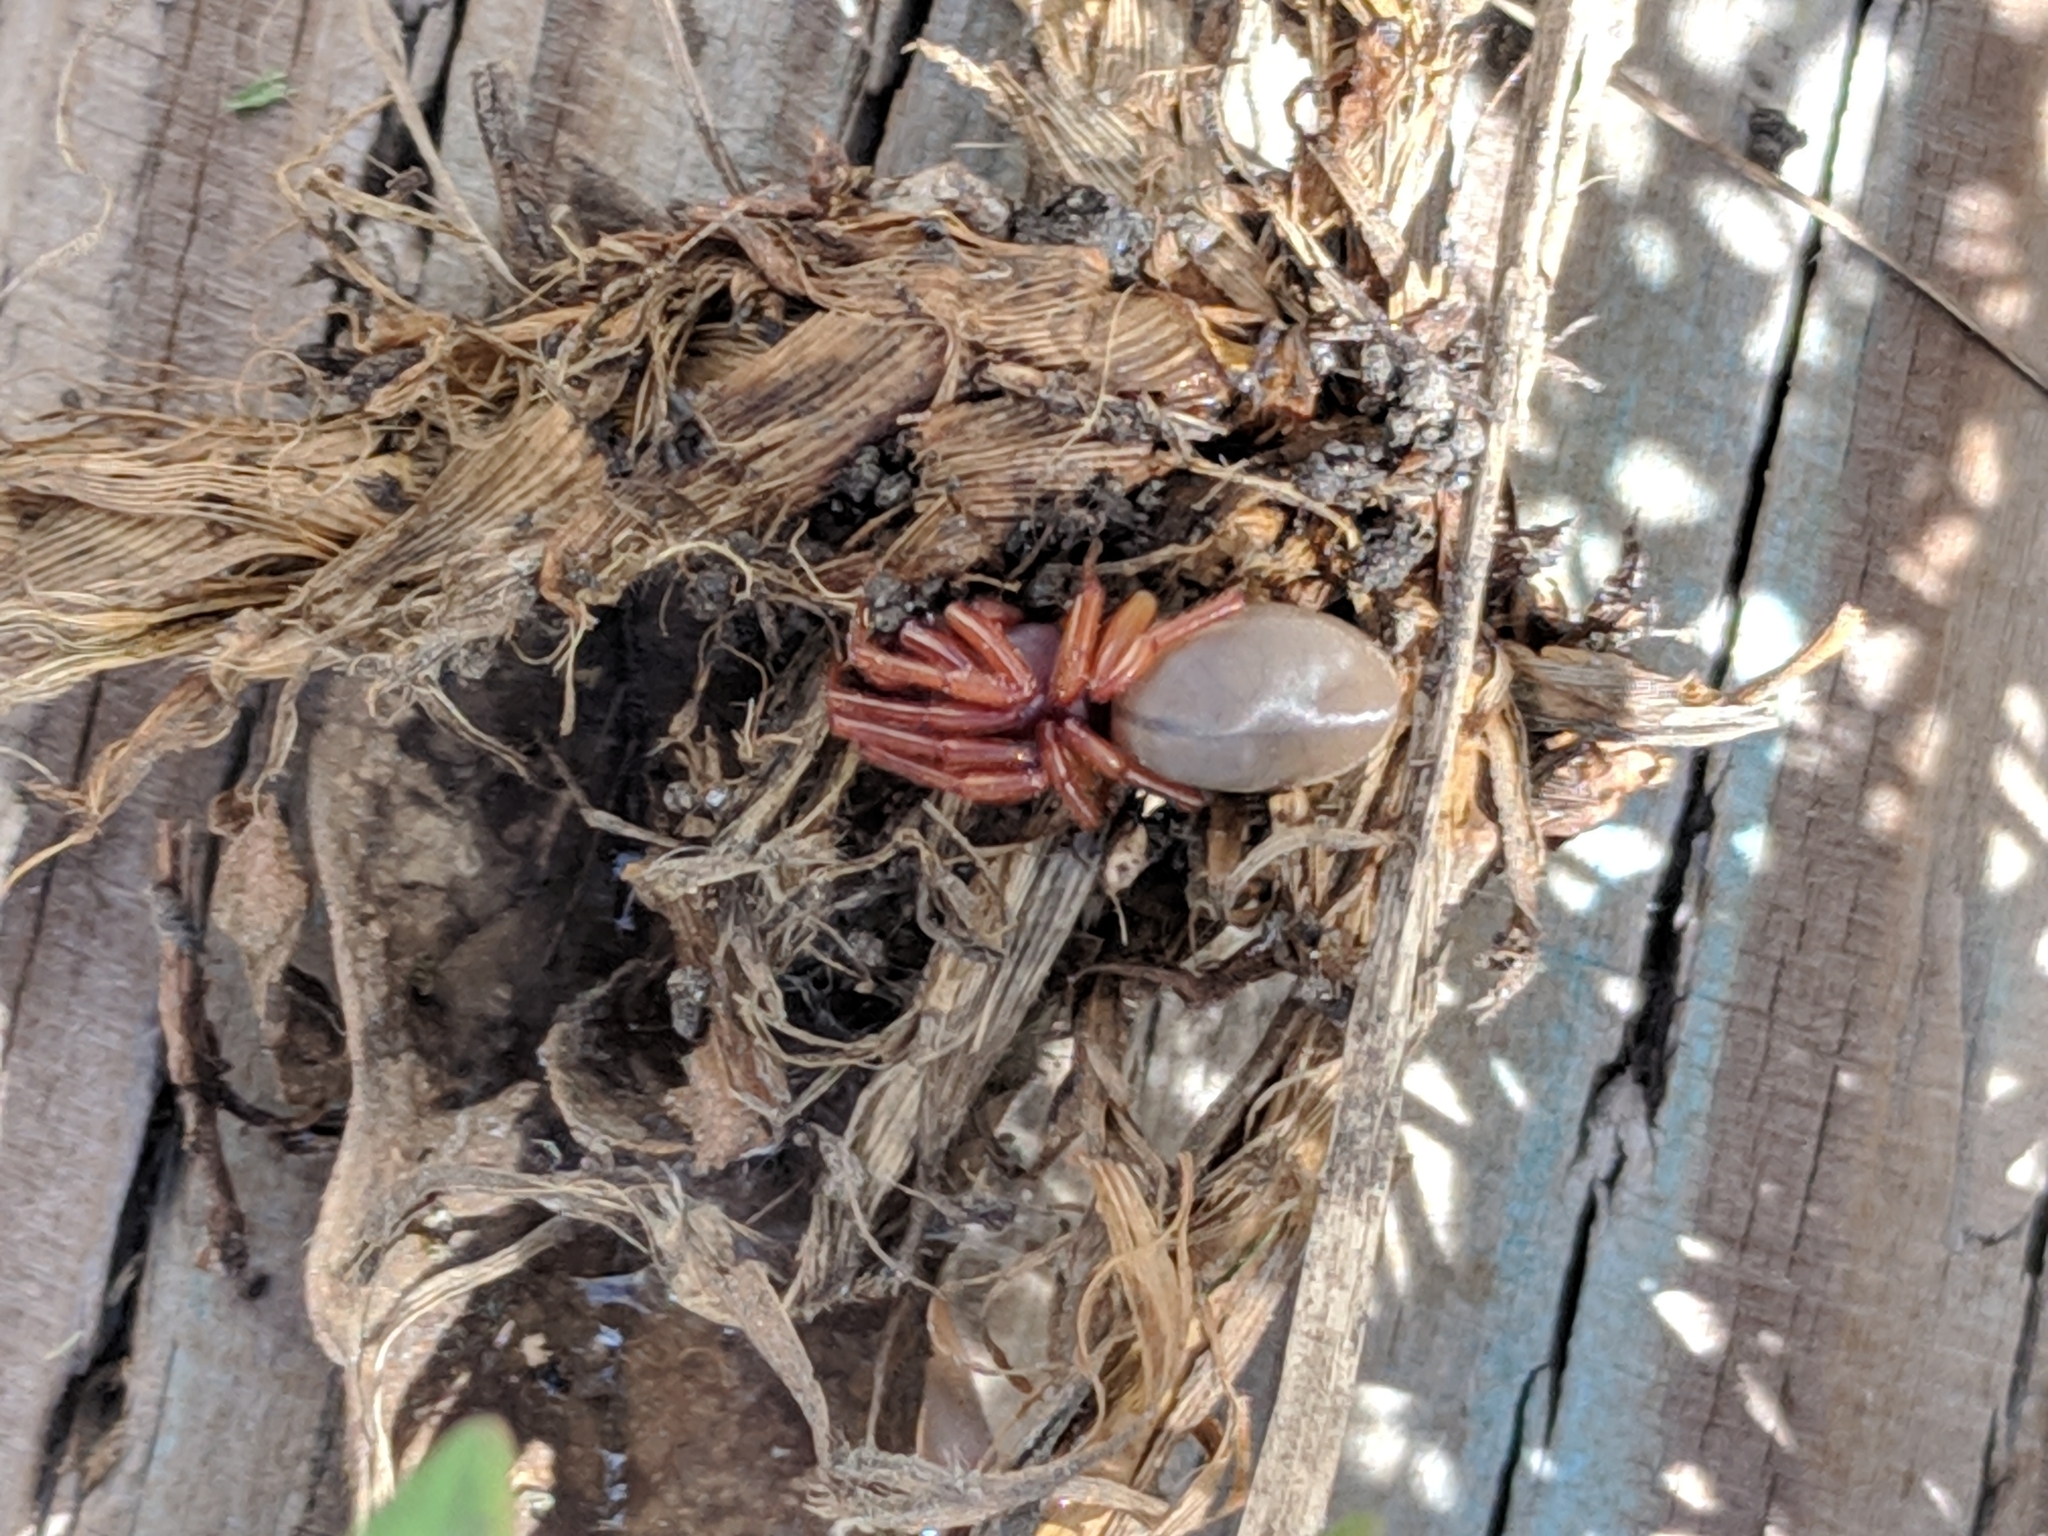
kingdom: Animalia
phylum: Arthropoda
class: Arachnida
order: Araneae
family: Dysderidae
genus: Dysdera
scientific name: Dysdera crocata
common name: Woodlouse spider
